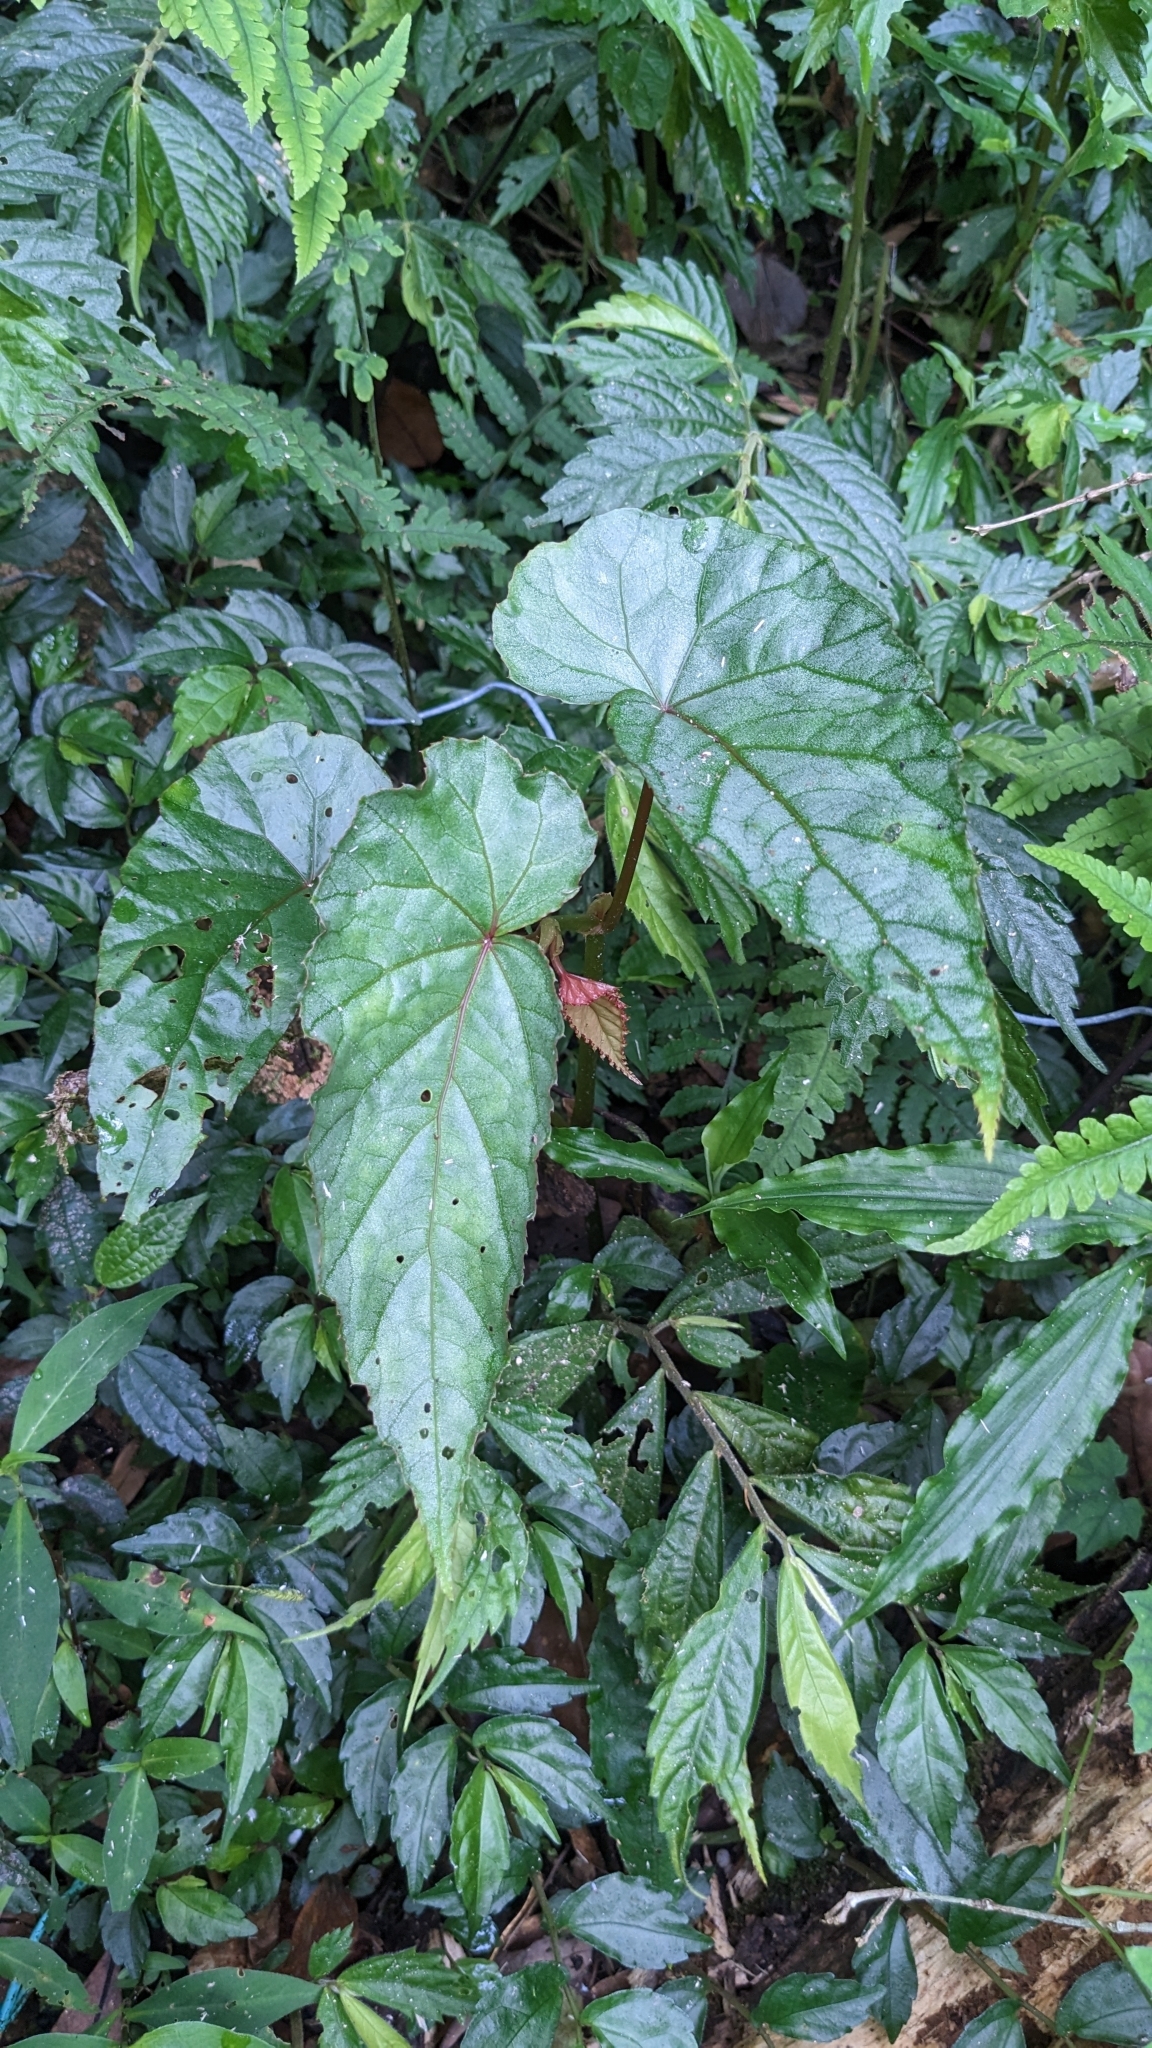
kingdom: Plantae
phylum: Tracheophyta
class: Magnoliopsida
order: Cucurbitales
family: Begoniaceae
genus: Begonia
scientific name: Begonia longifolia
